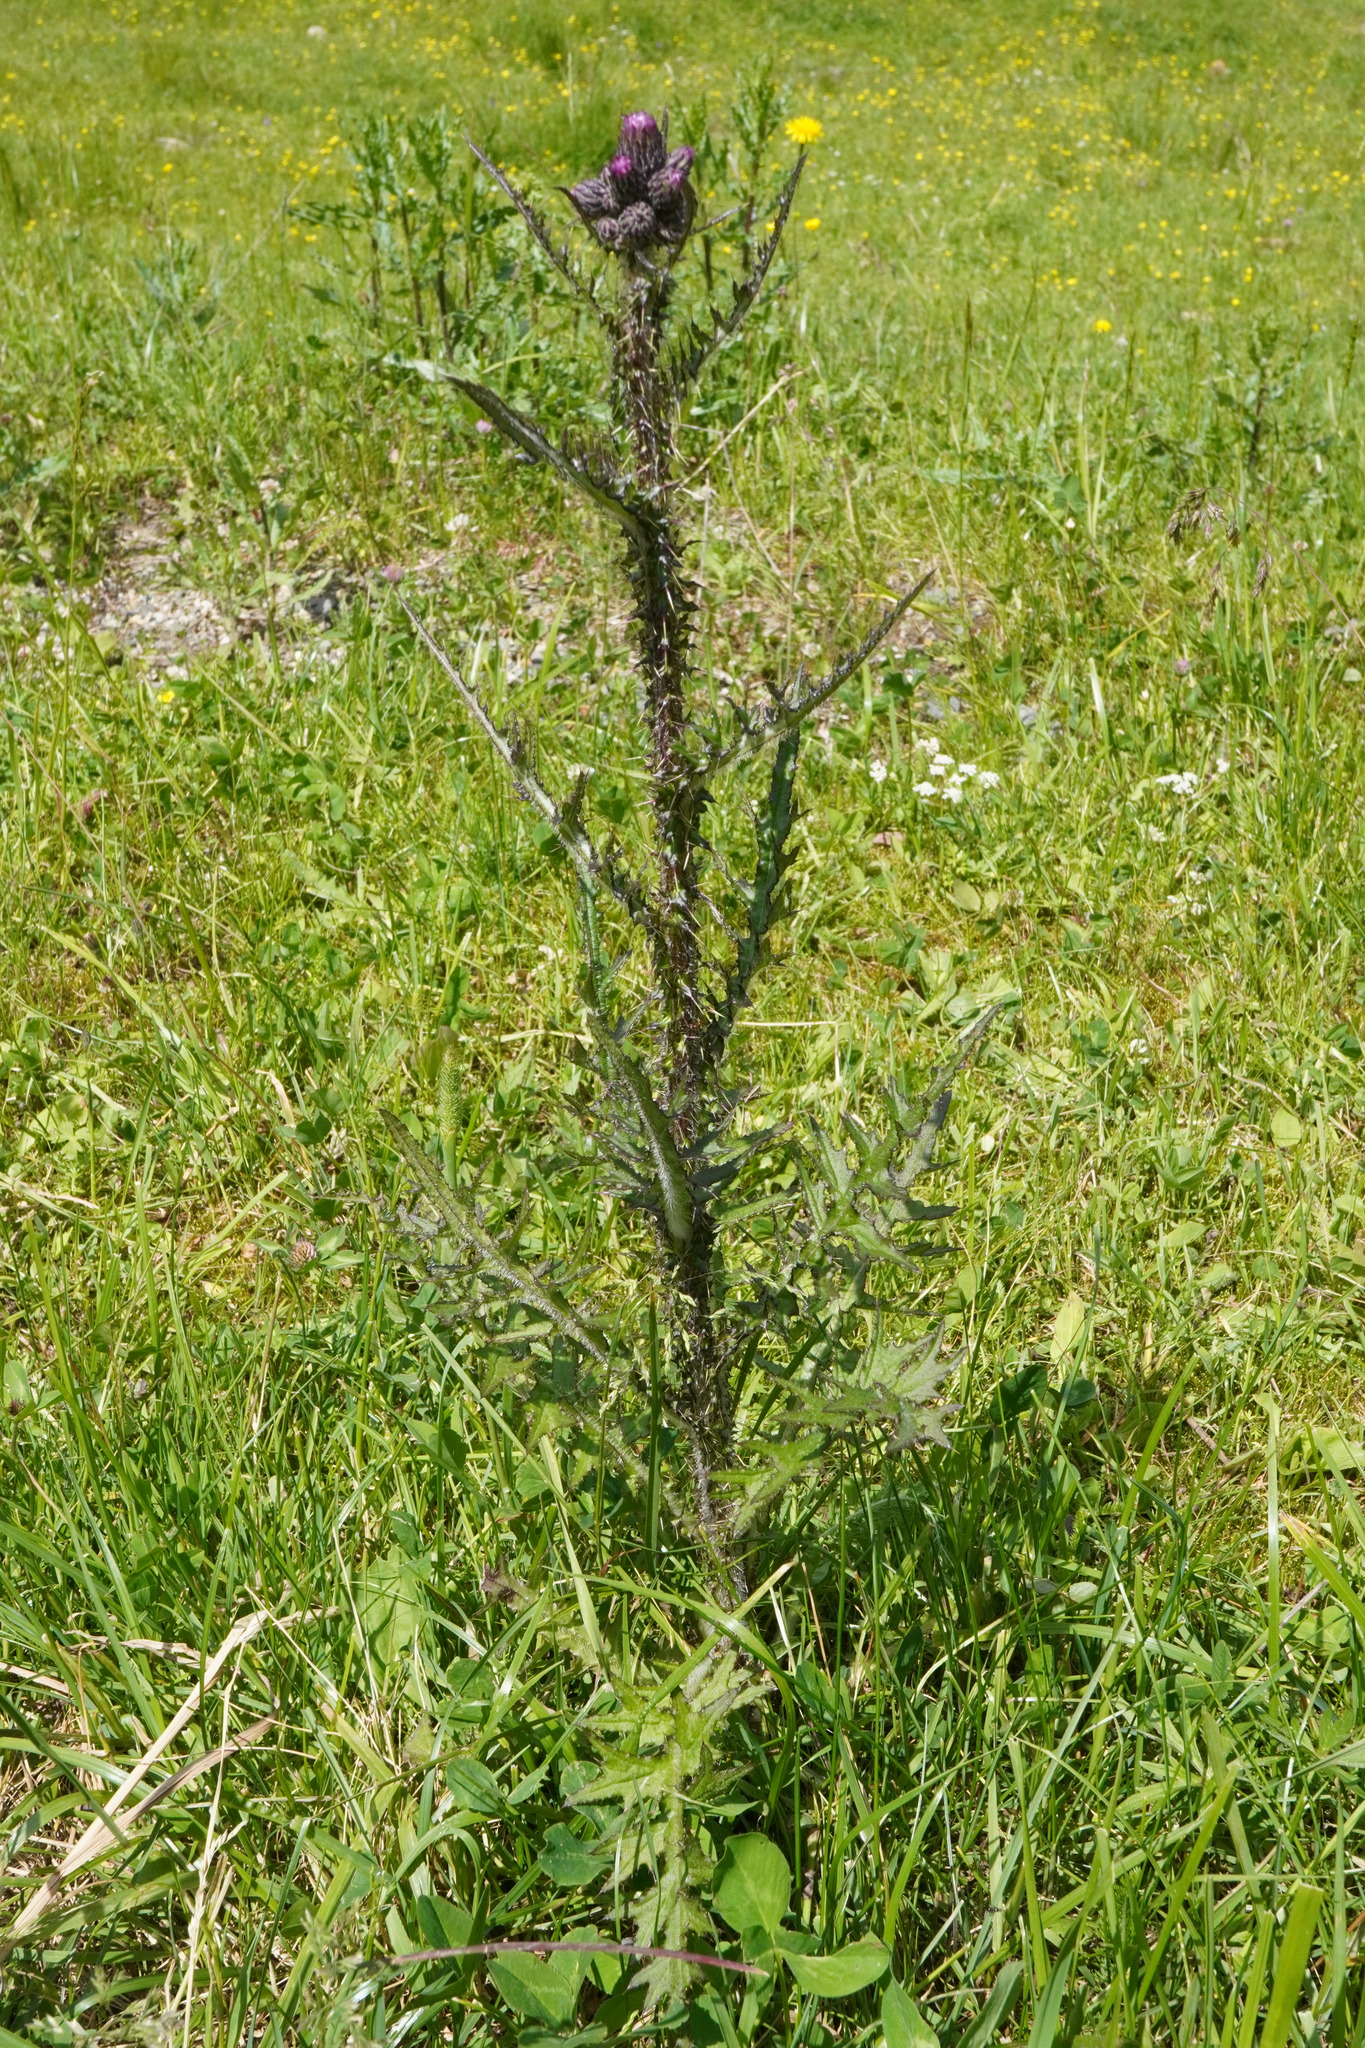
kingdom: Plantae
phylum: Tracheophyta
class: Magnoliopsida
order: Asterales
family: Asteraceae
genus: Cirsium
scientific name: Cirsium palustre
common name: Marsh thistle
